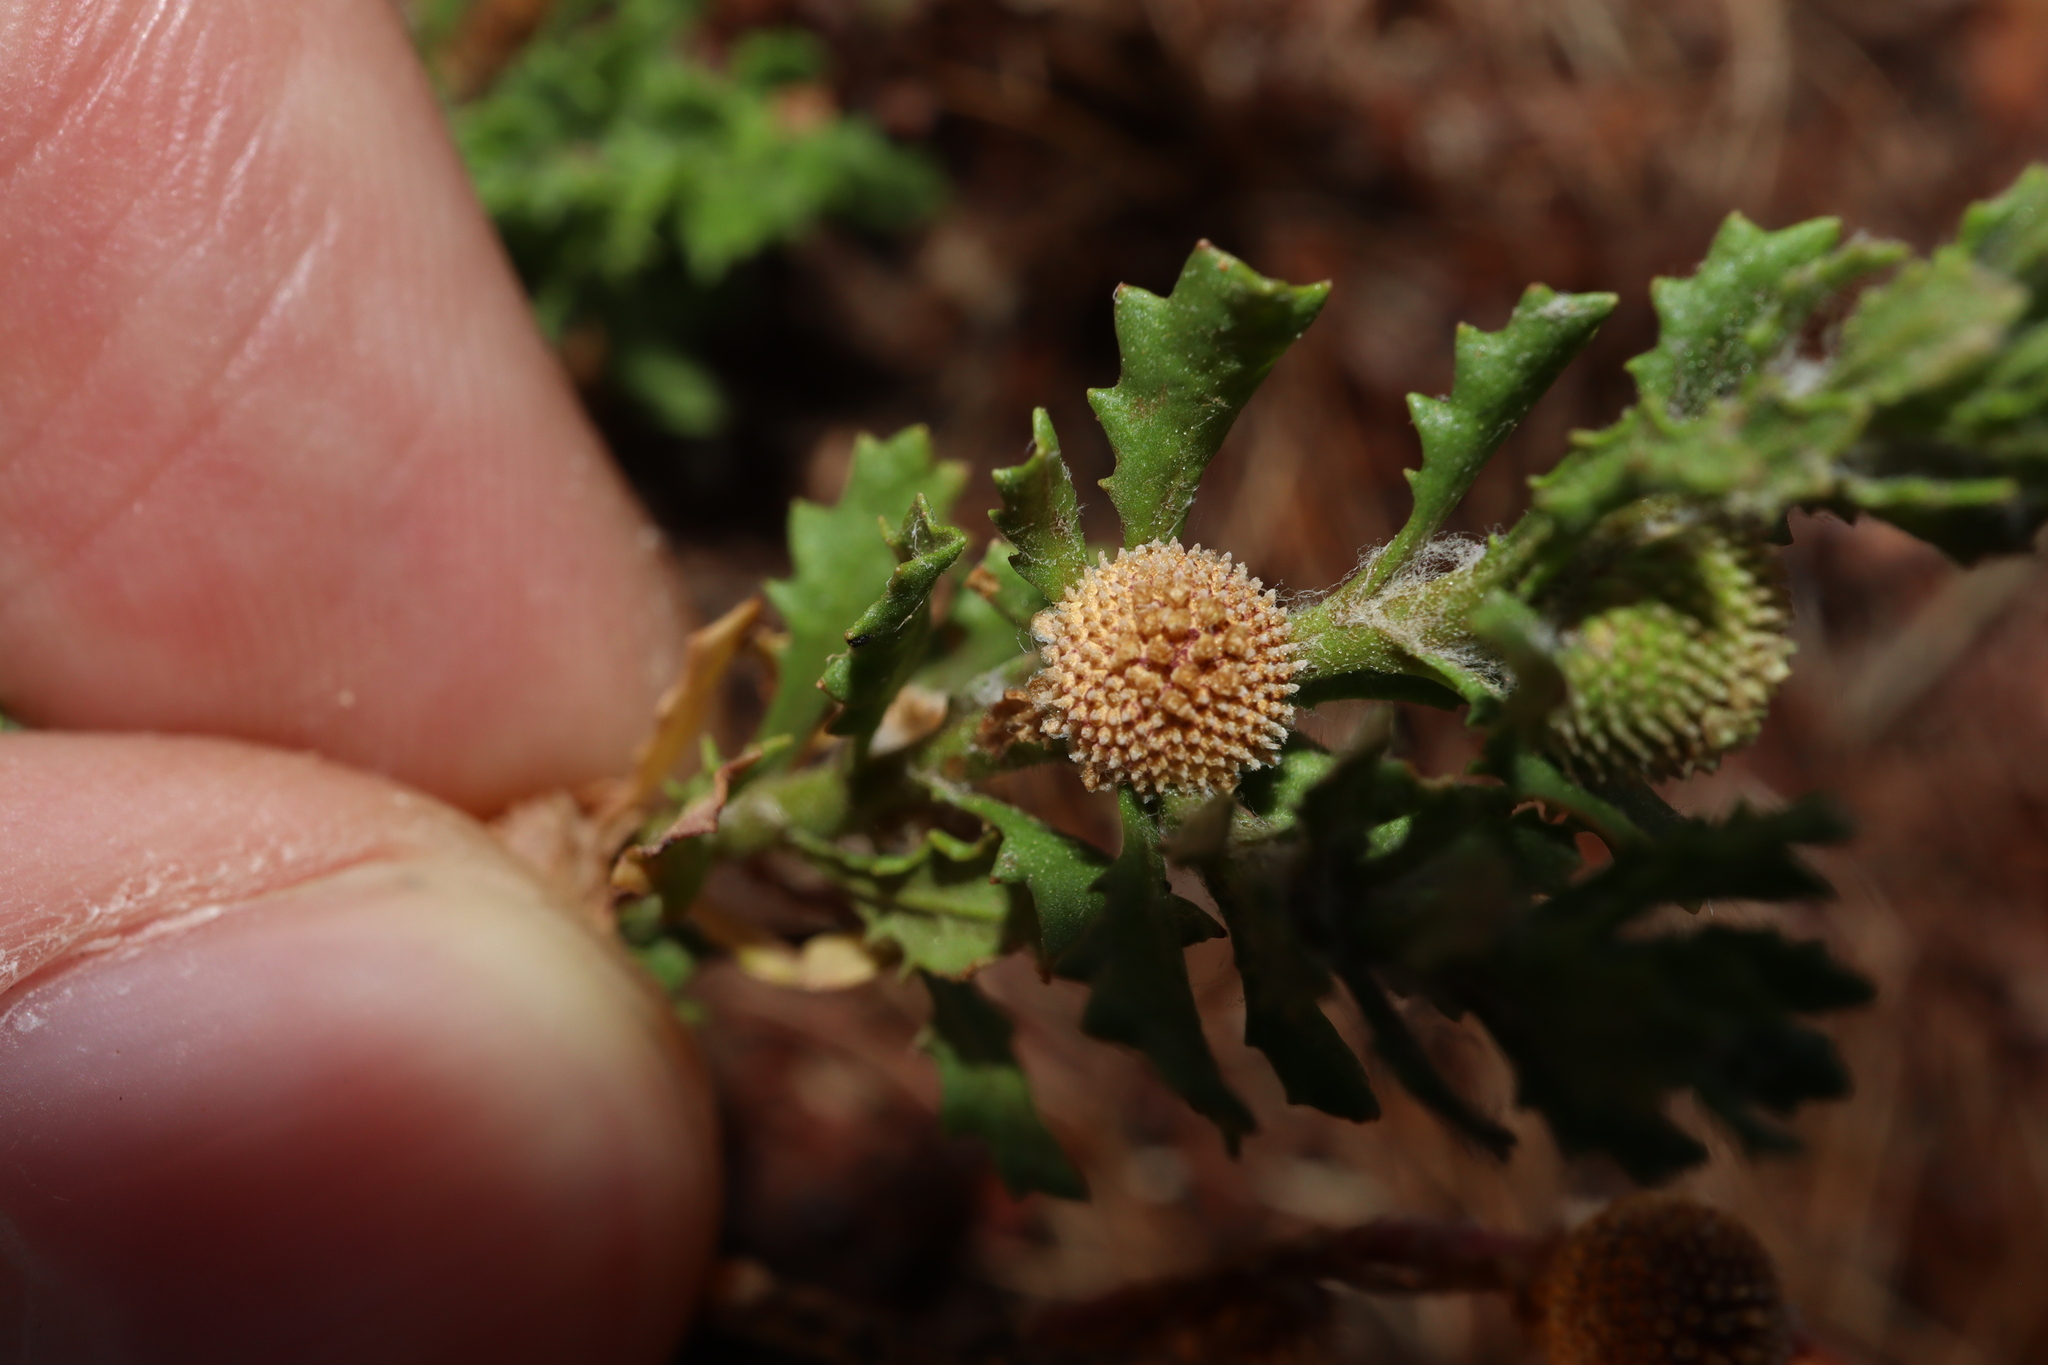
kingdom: Plantae
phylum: Tracheophyta
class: Magnoliopsida
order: Asterales
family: Asteraceae
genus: Centipeda
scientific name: Centipeda cunninghamii
